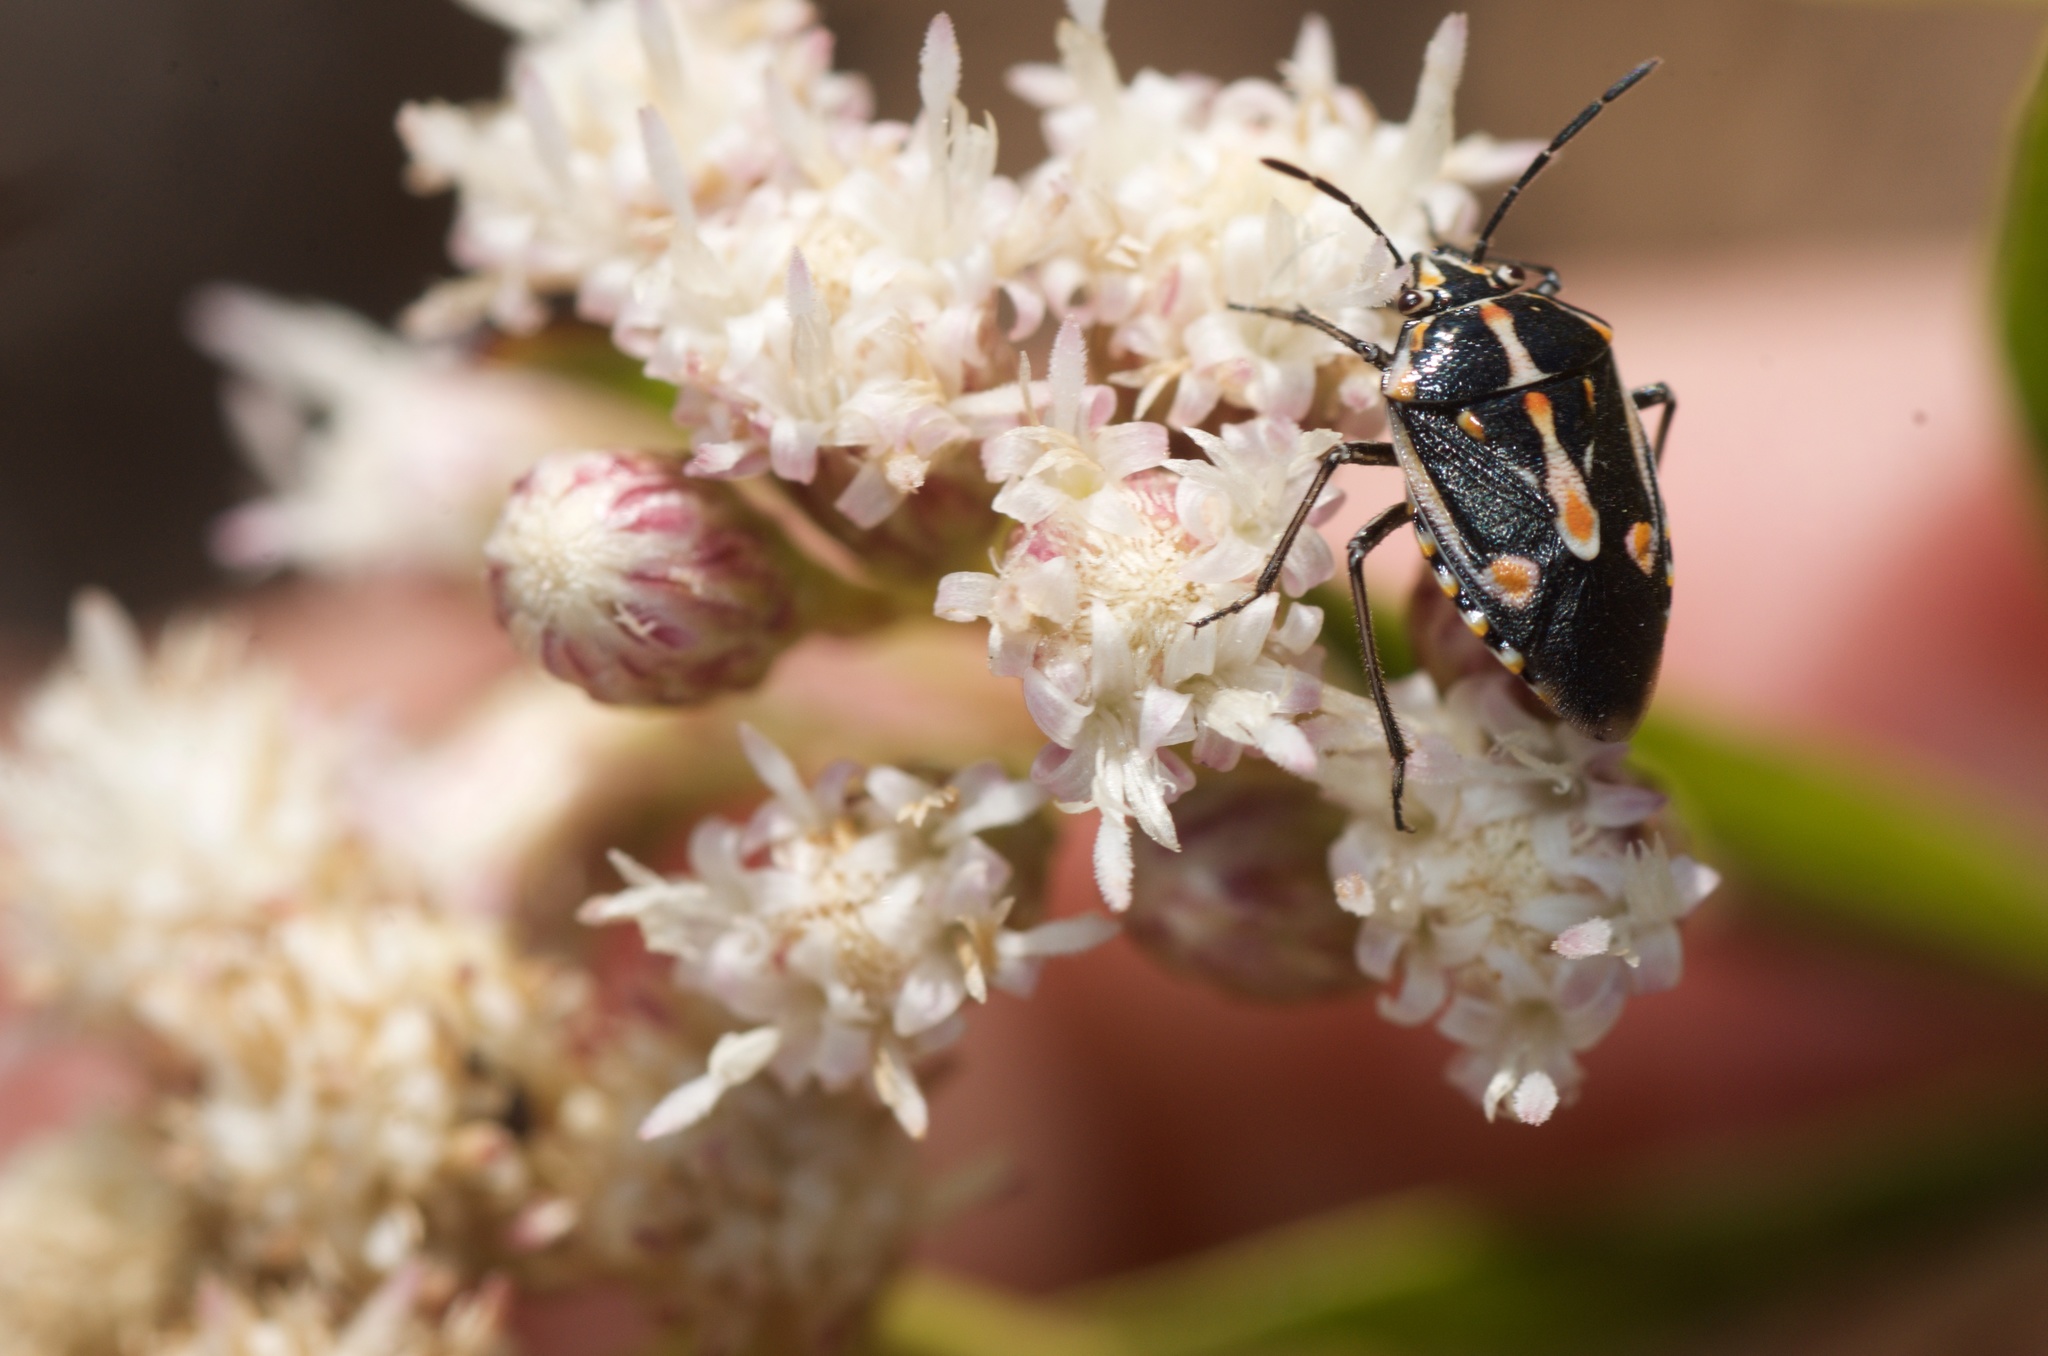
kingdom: Animalia
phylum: Arthropoda
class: Insecta
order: Hemiptera
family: Pentatomidae
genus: Bagrada
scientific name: Bagrada hilaris
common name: Bagrada bug
